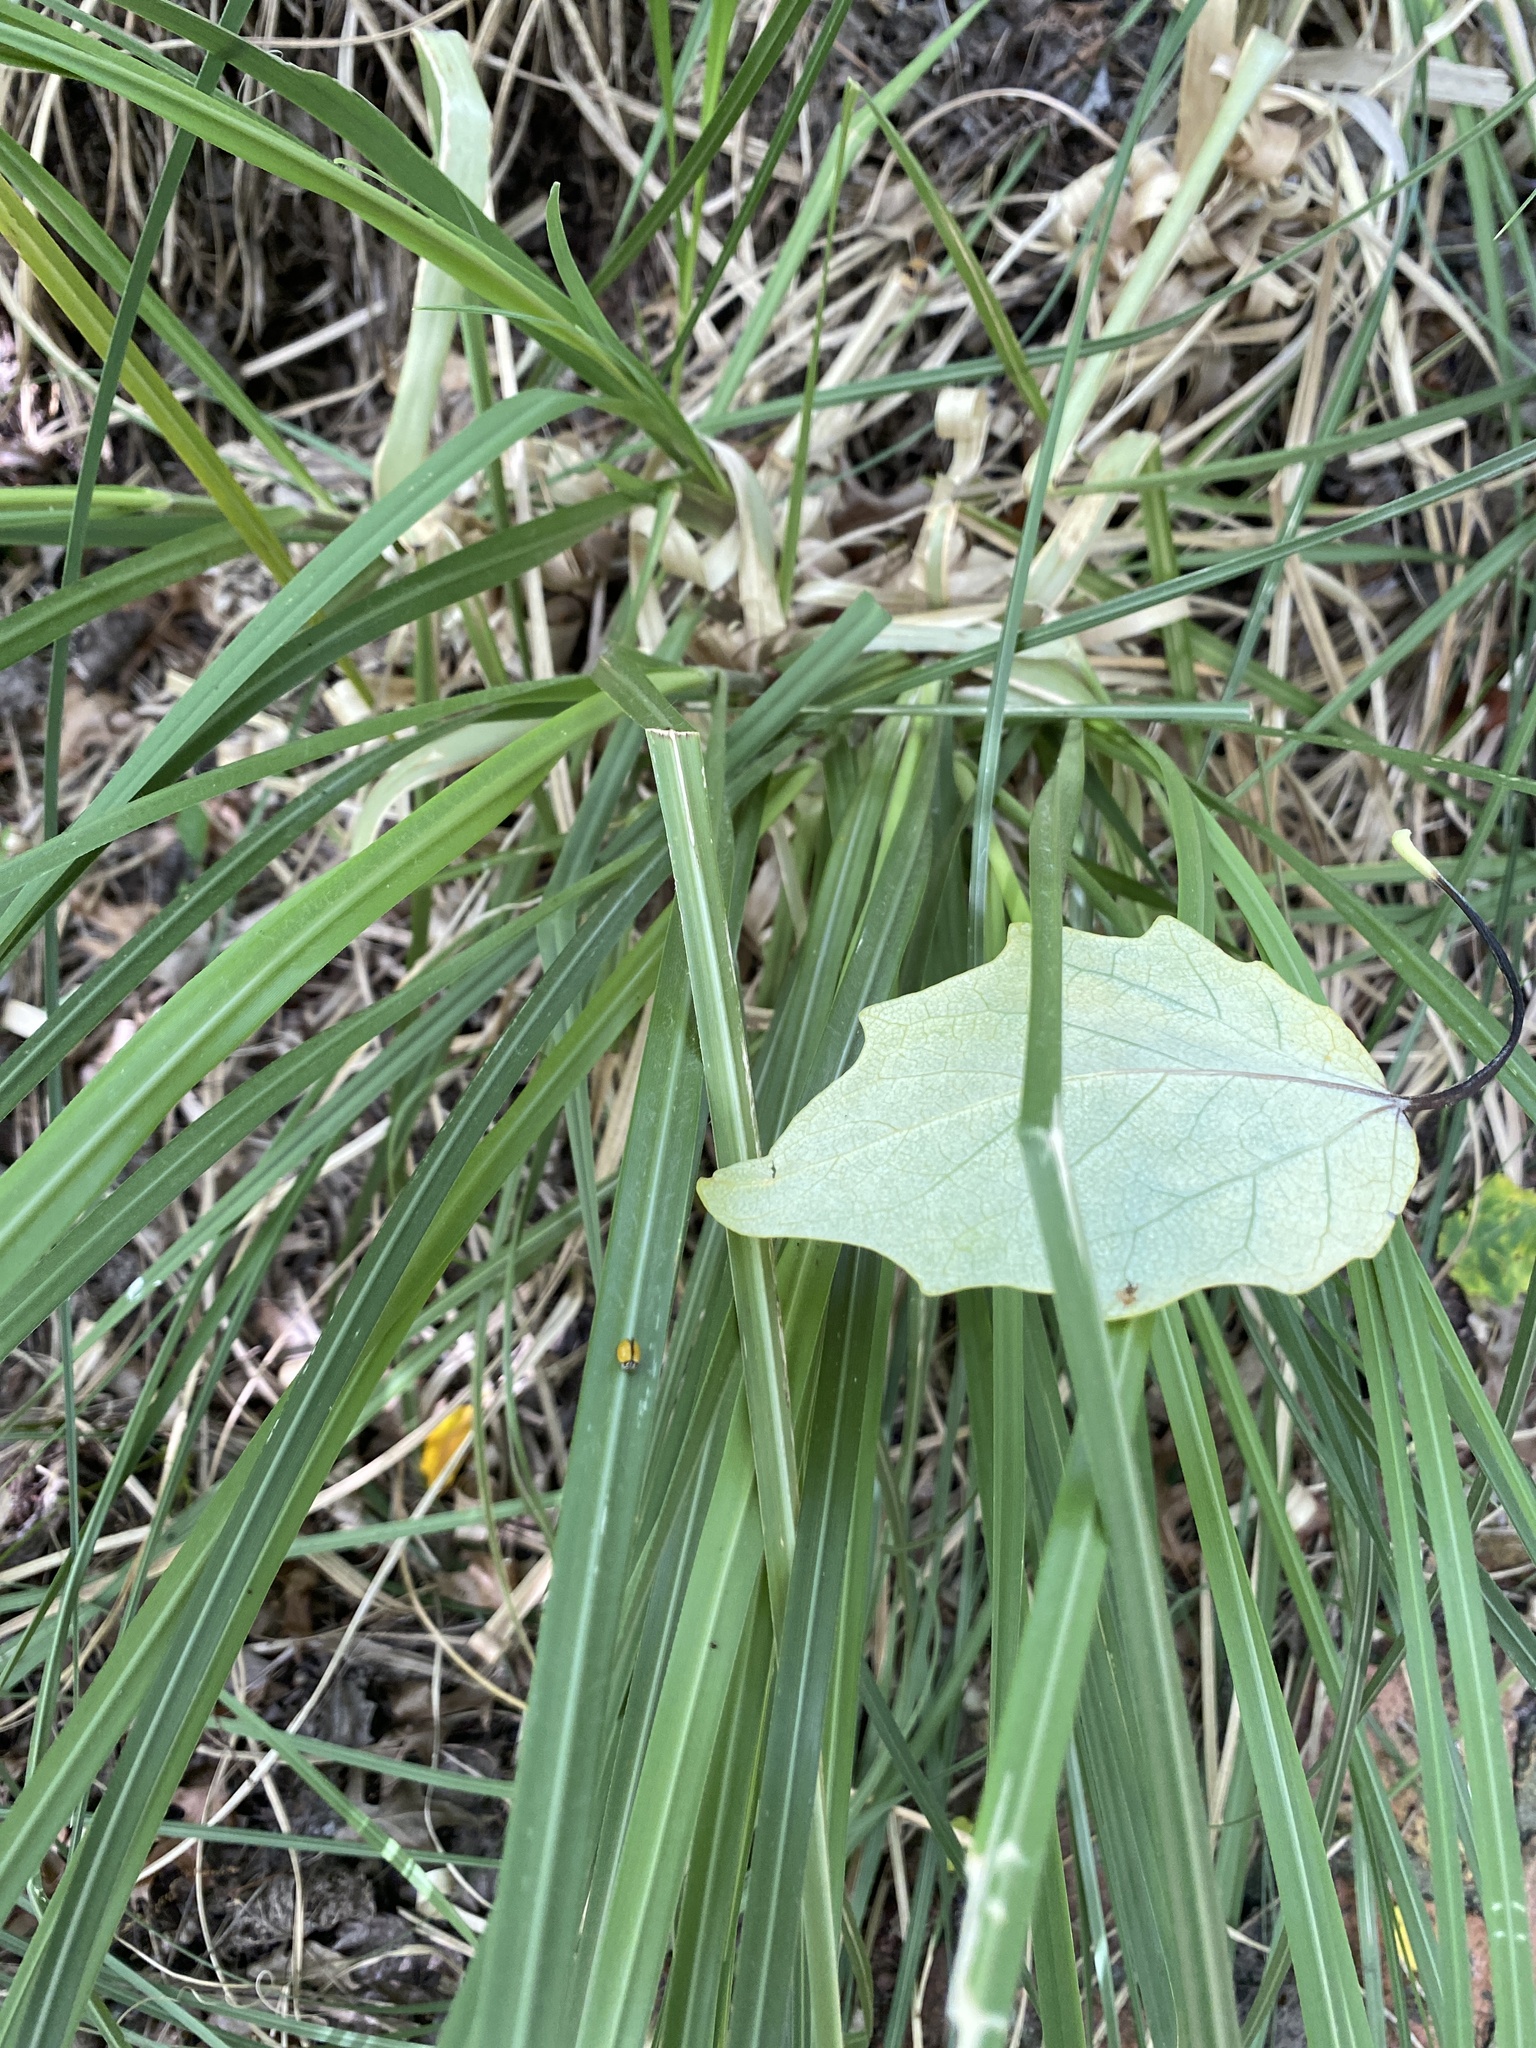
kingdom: Animalia
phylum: Arthropoda
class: Insecta
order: Coleoptera
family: Coccinellidae
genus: Oenopia
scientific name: Oenopia
